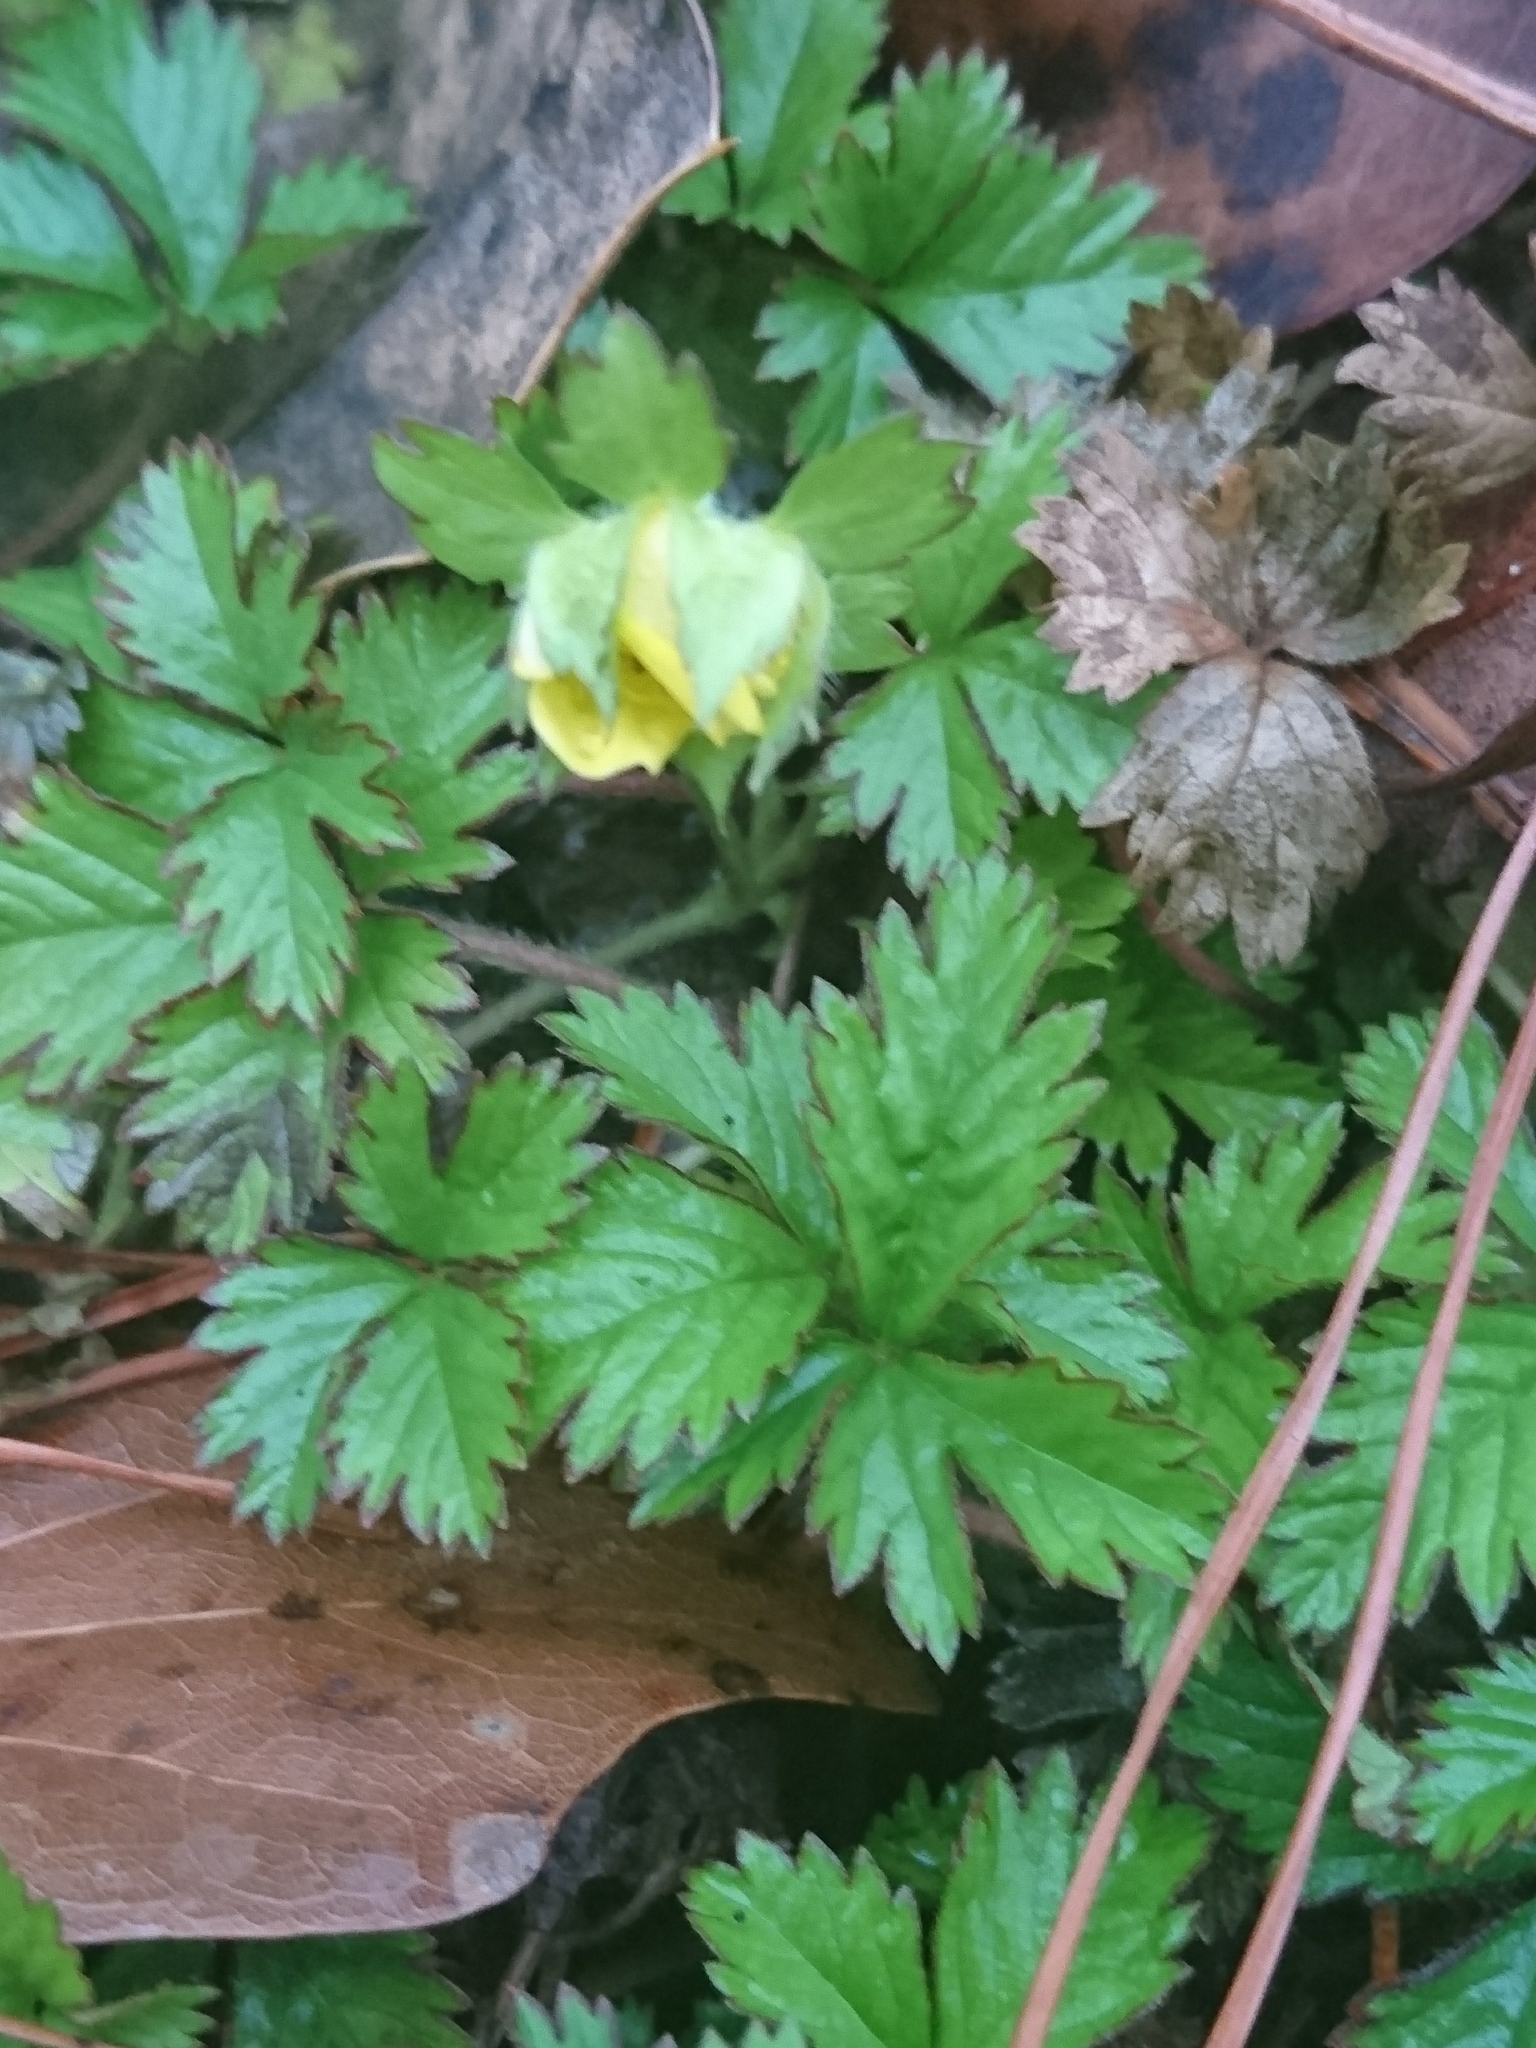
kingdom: Plantae
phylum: Tracheophyta
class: Magnoliopsida
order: Rosales
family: Rosaceae
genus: Potentilla
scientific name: Potentilla indica
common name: Yellow-flowered strawberry
